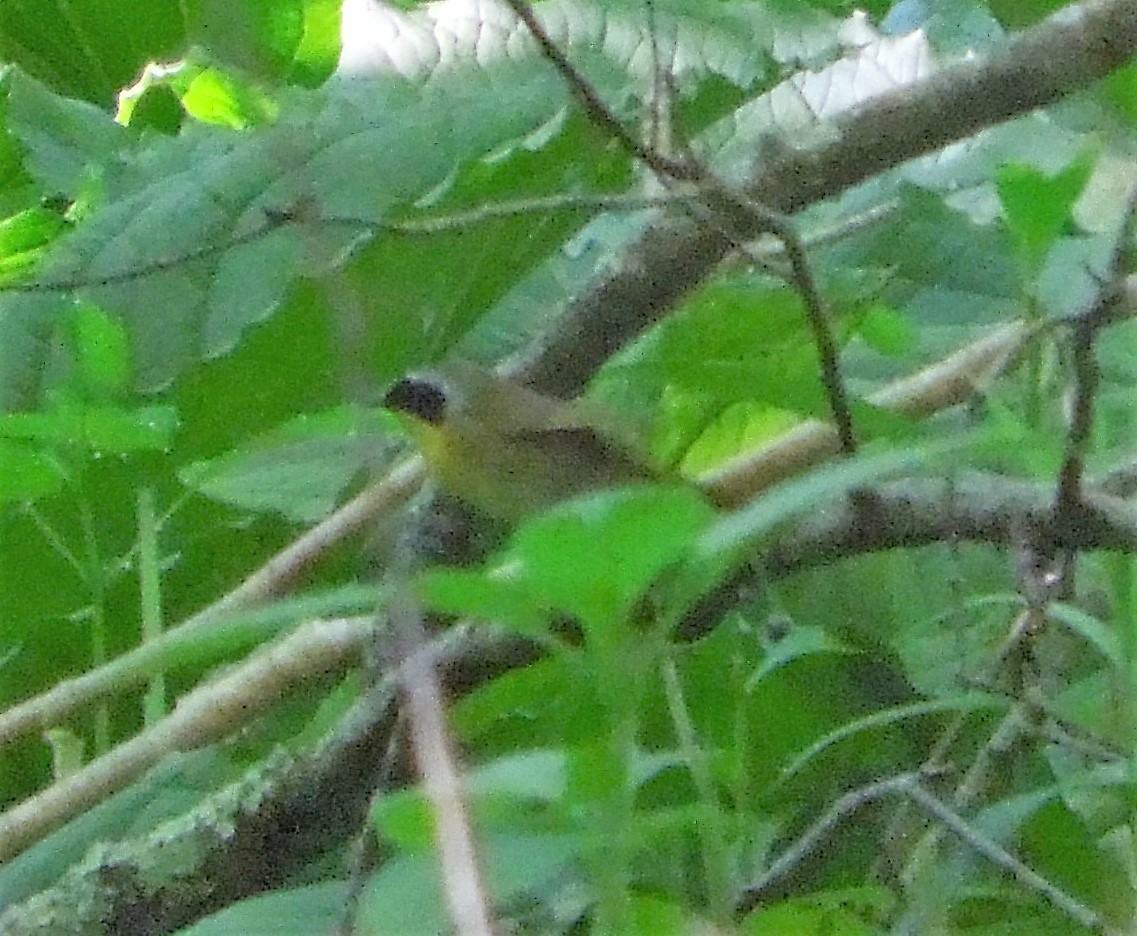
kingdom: Animalia
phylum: Chordata
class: Aves
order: Passeriformes
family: Parulidae
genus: Geothlypis
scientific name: Geothlypis trichas
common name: Common yellowthroat
